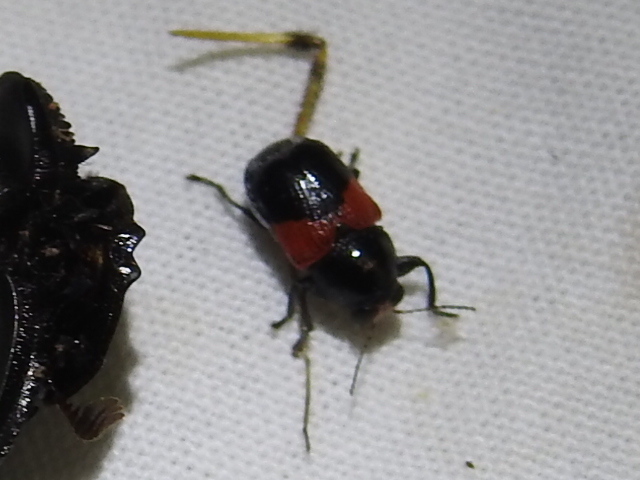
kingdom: Animalia
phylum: Arthropoda
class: Insecta
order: Coleoptera
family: Chrysomelidae
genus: Scelolyperus
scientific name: Scelolyperus lecontii
